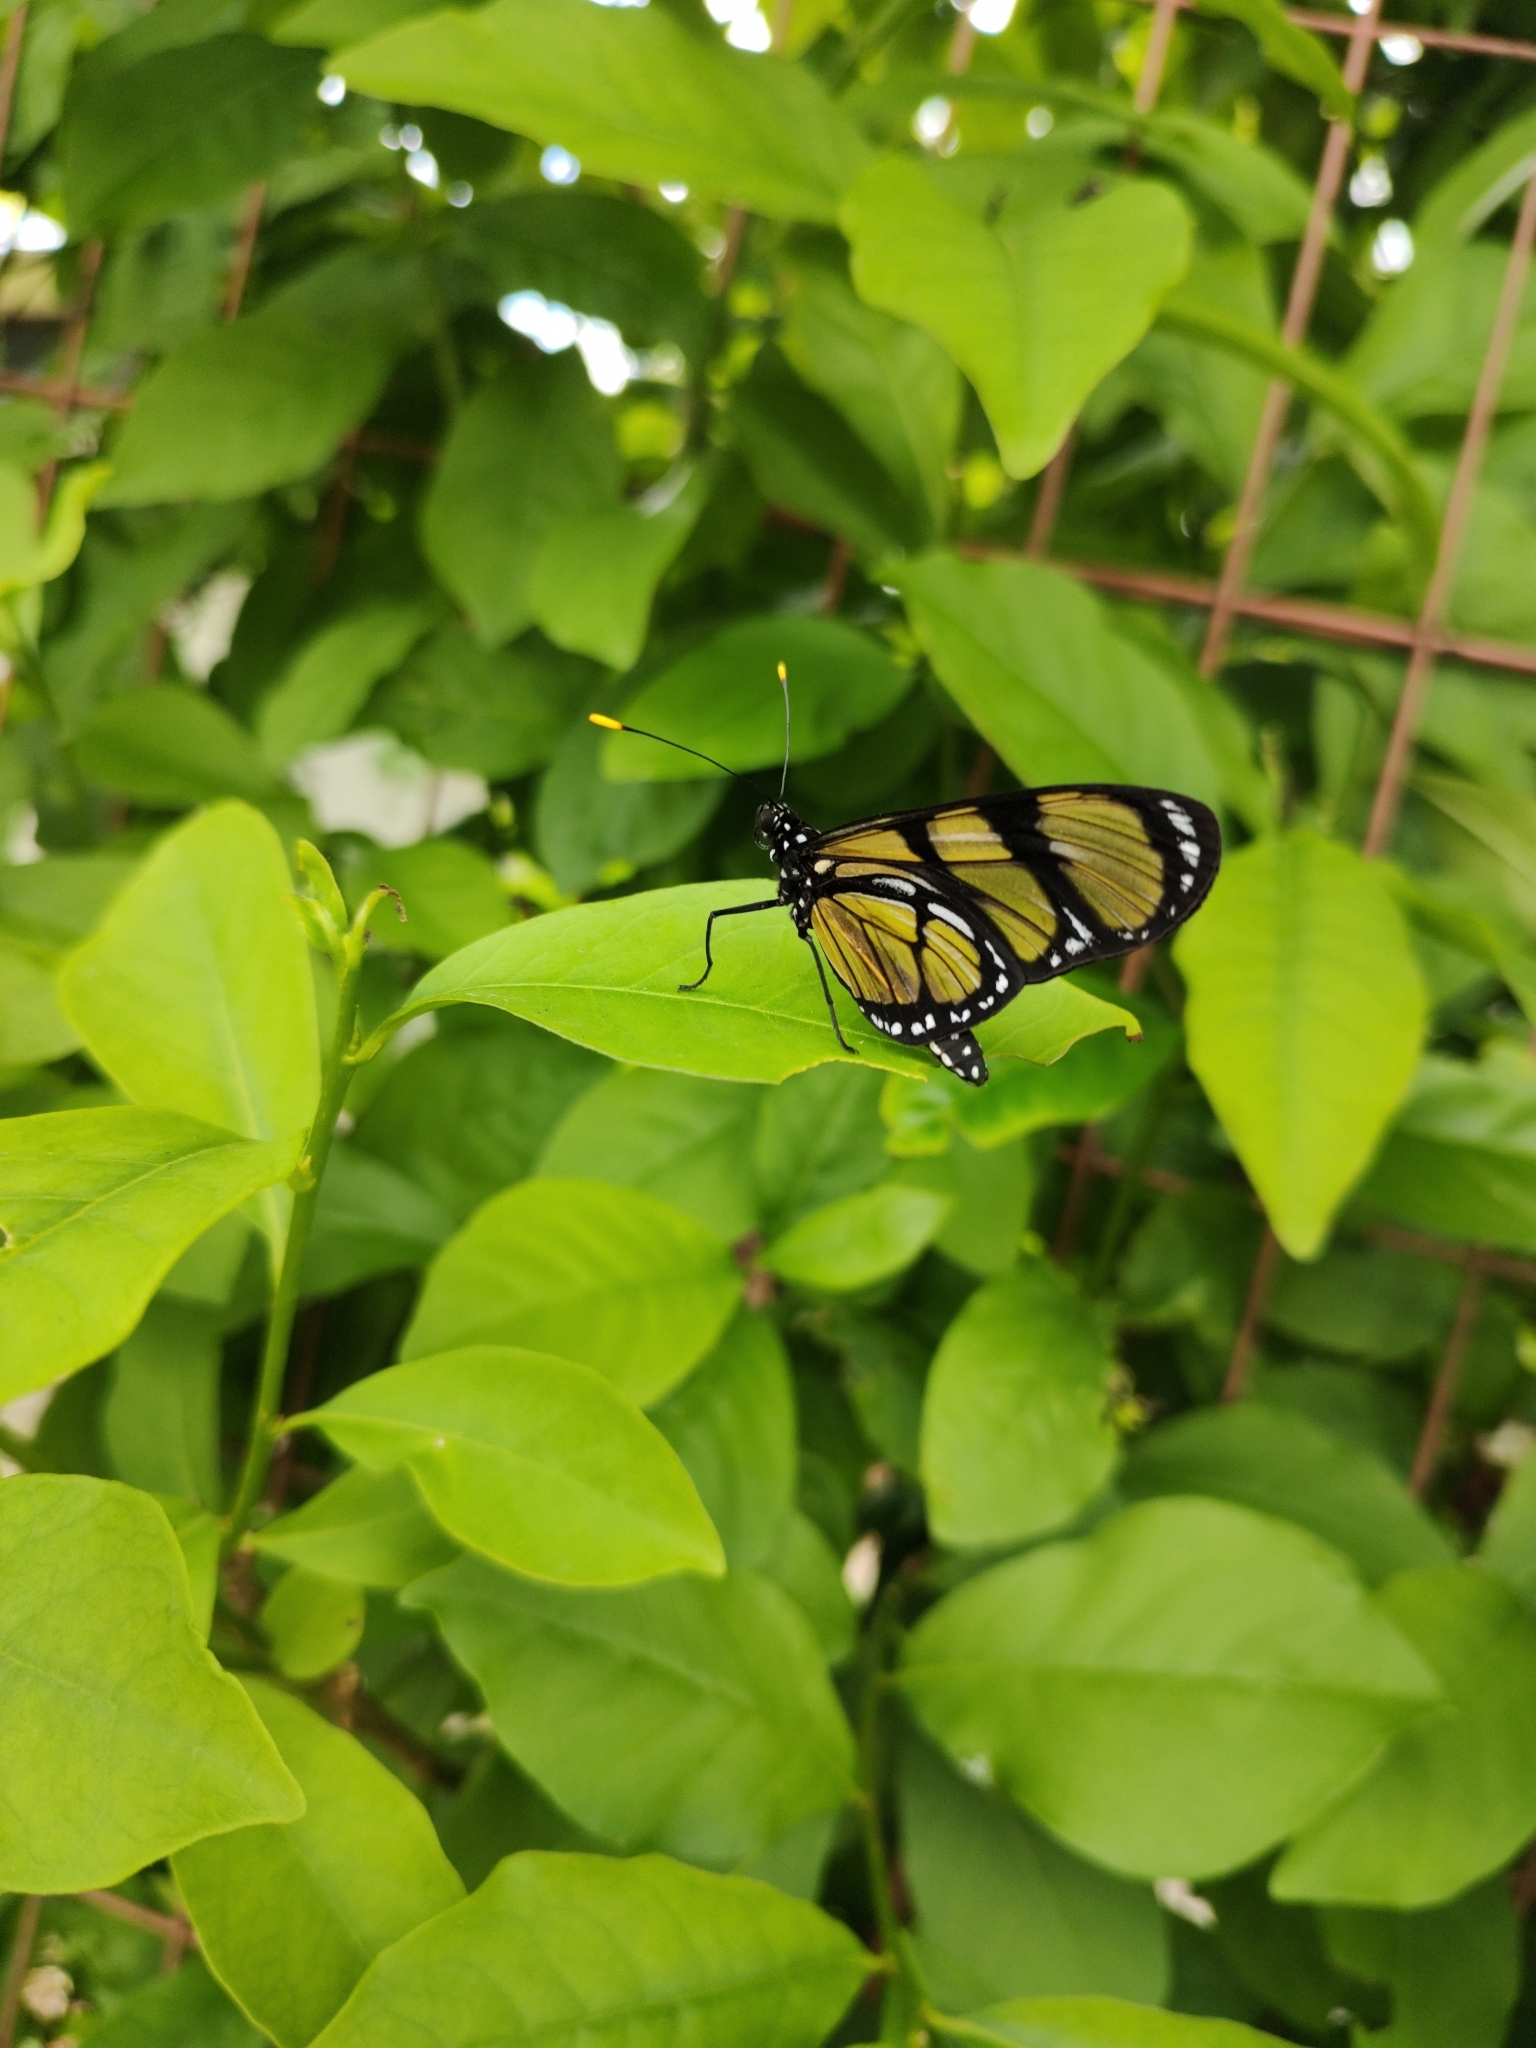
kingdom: Animalia
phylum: Arthropoda
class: Insecta
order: Lepidoptera
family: Nymphalidae
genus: Methona
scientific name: Methona themisto
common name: Themisto amberwing
